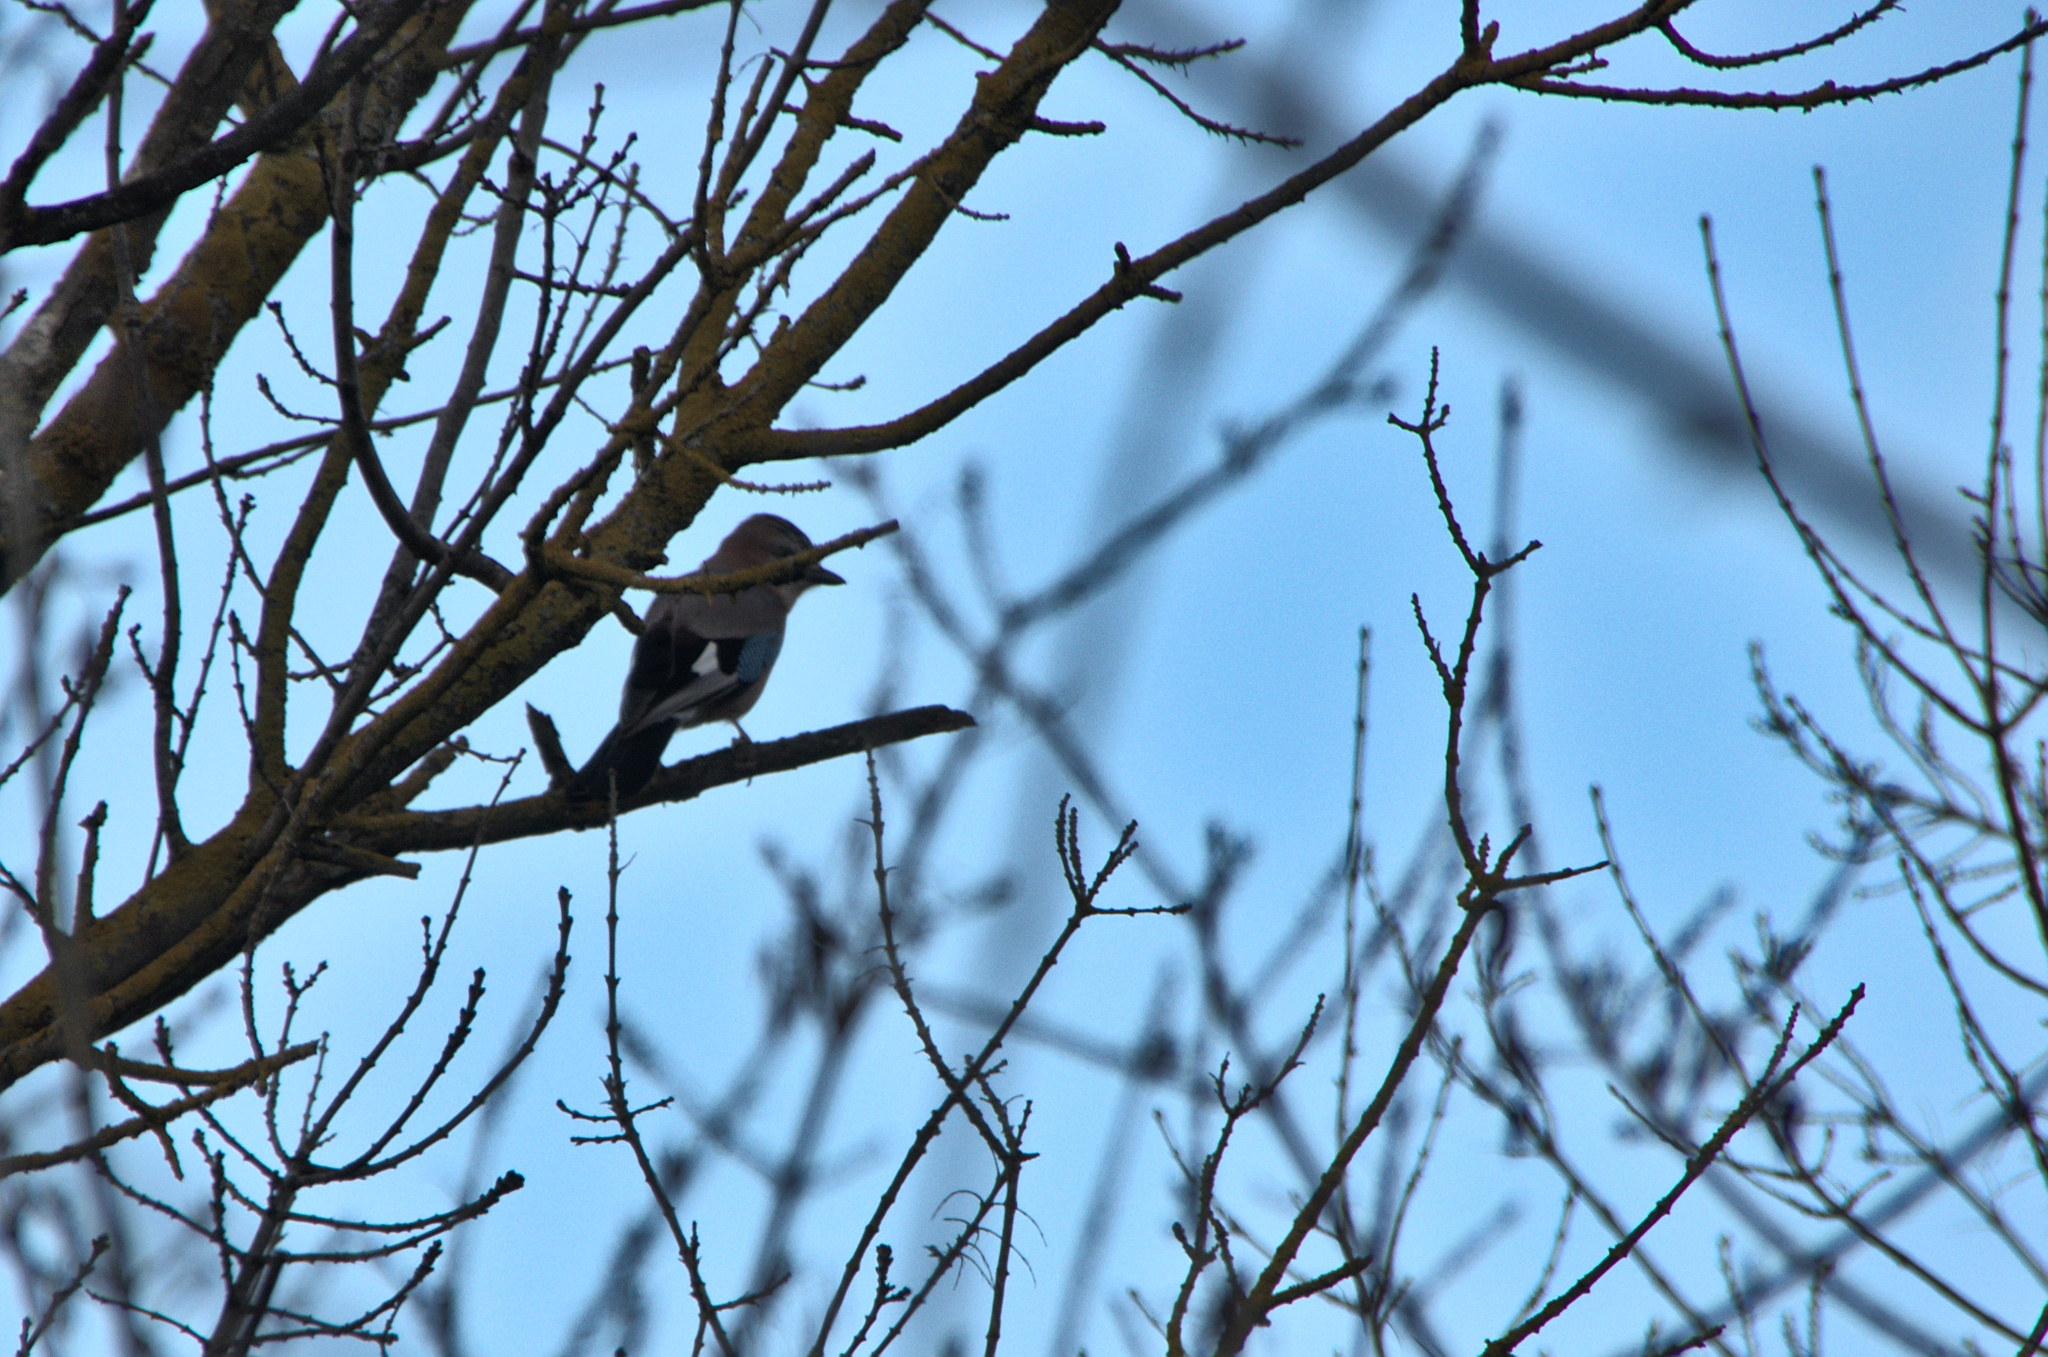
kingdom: Animalia
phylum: Chordata
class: Aves
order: Passeriformes
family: Corvidae
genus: Garrulus
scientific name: Garrulus glandarius
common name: Eurasian jay
